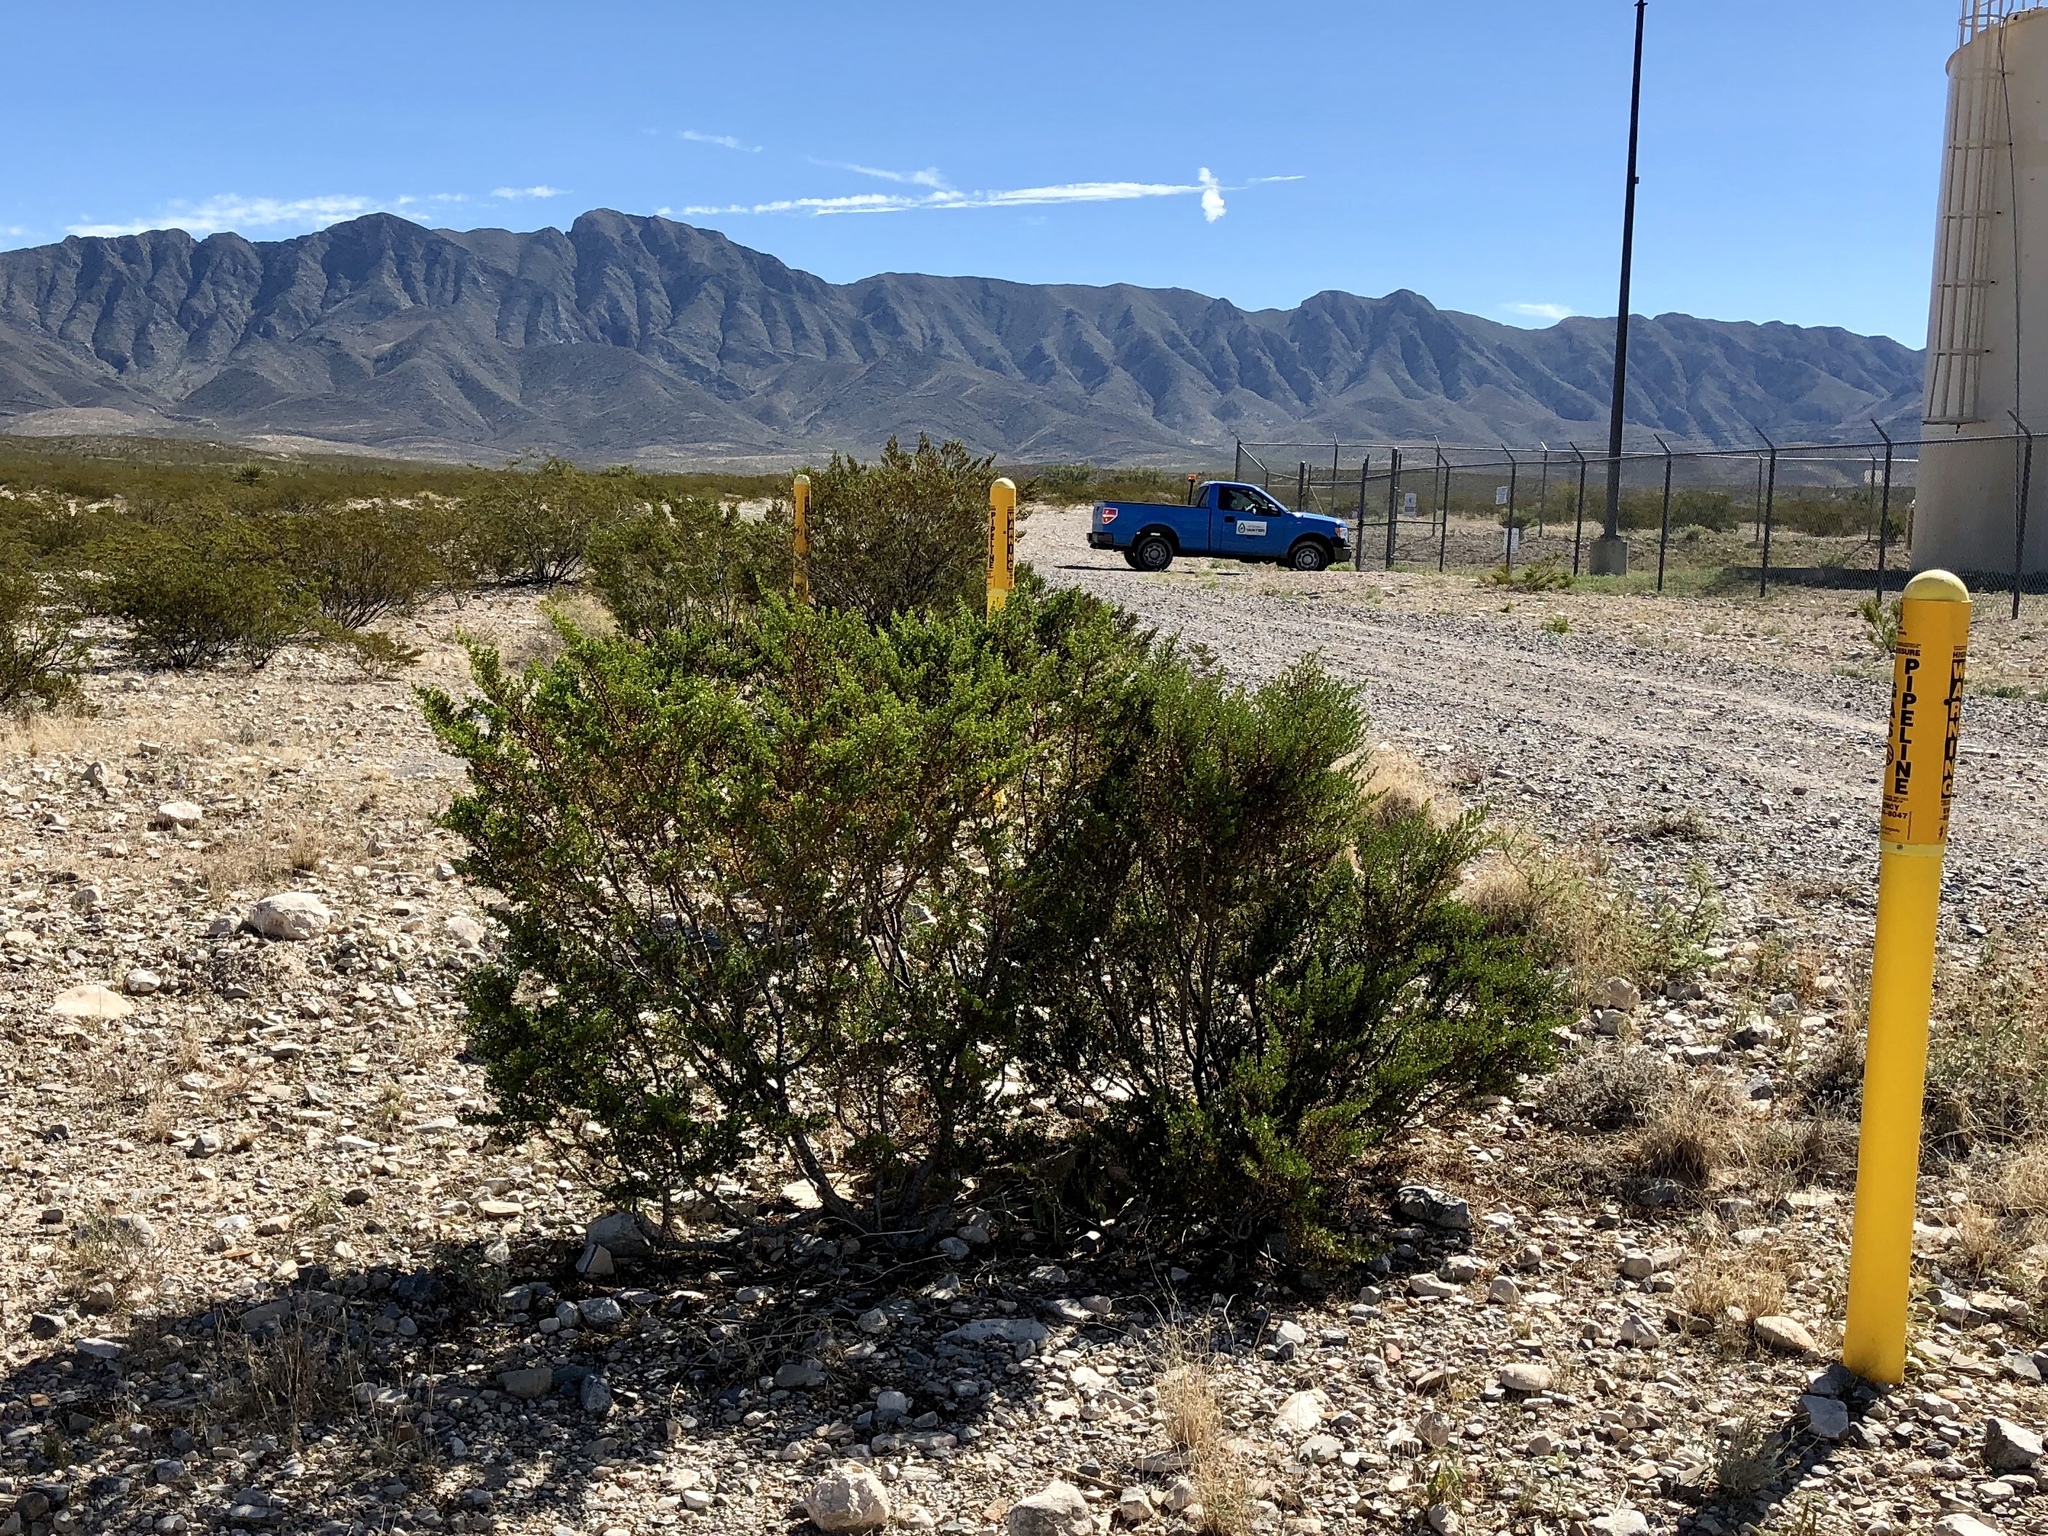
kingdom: Plantae
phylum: Tracheophyta
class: Magnoliopsida
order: Zygophyllales
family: Zygophyllaceae
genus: Larrea
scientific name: Larrea tridentata
